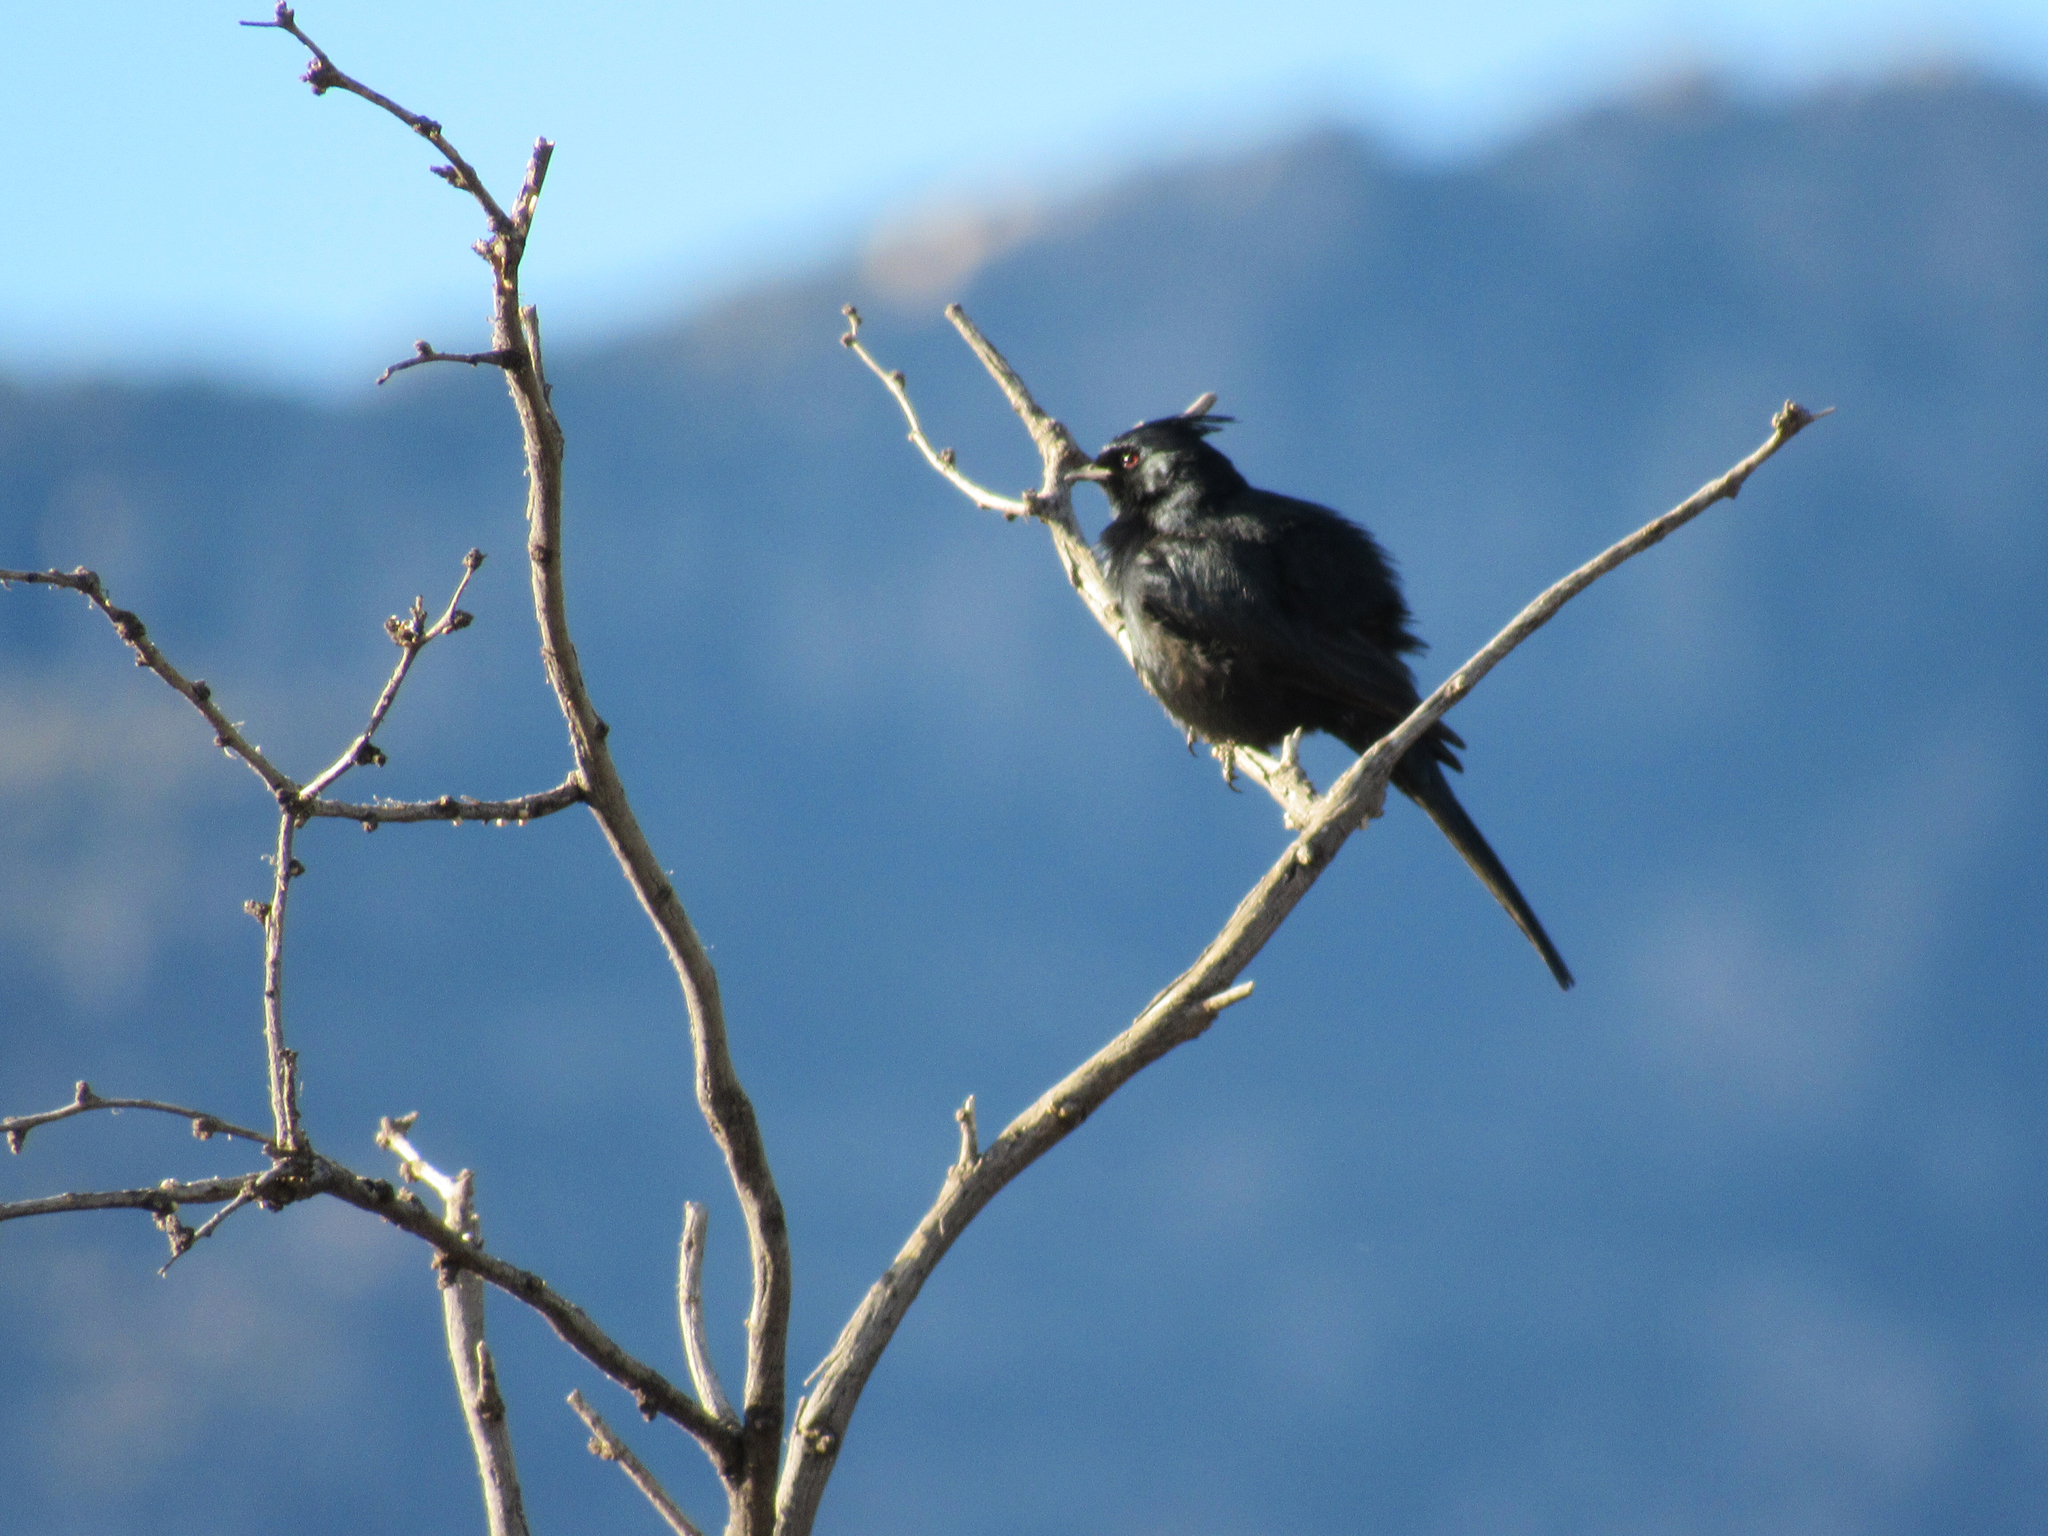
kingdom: Animalia
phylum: Chordata
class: Aves
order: Passeriformes
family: Ptilogonatidae
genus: Phainopepla
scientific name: Phainopepla nitens
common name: Phainopepla
